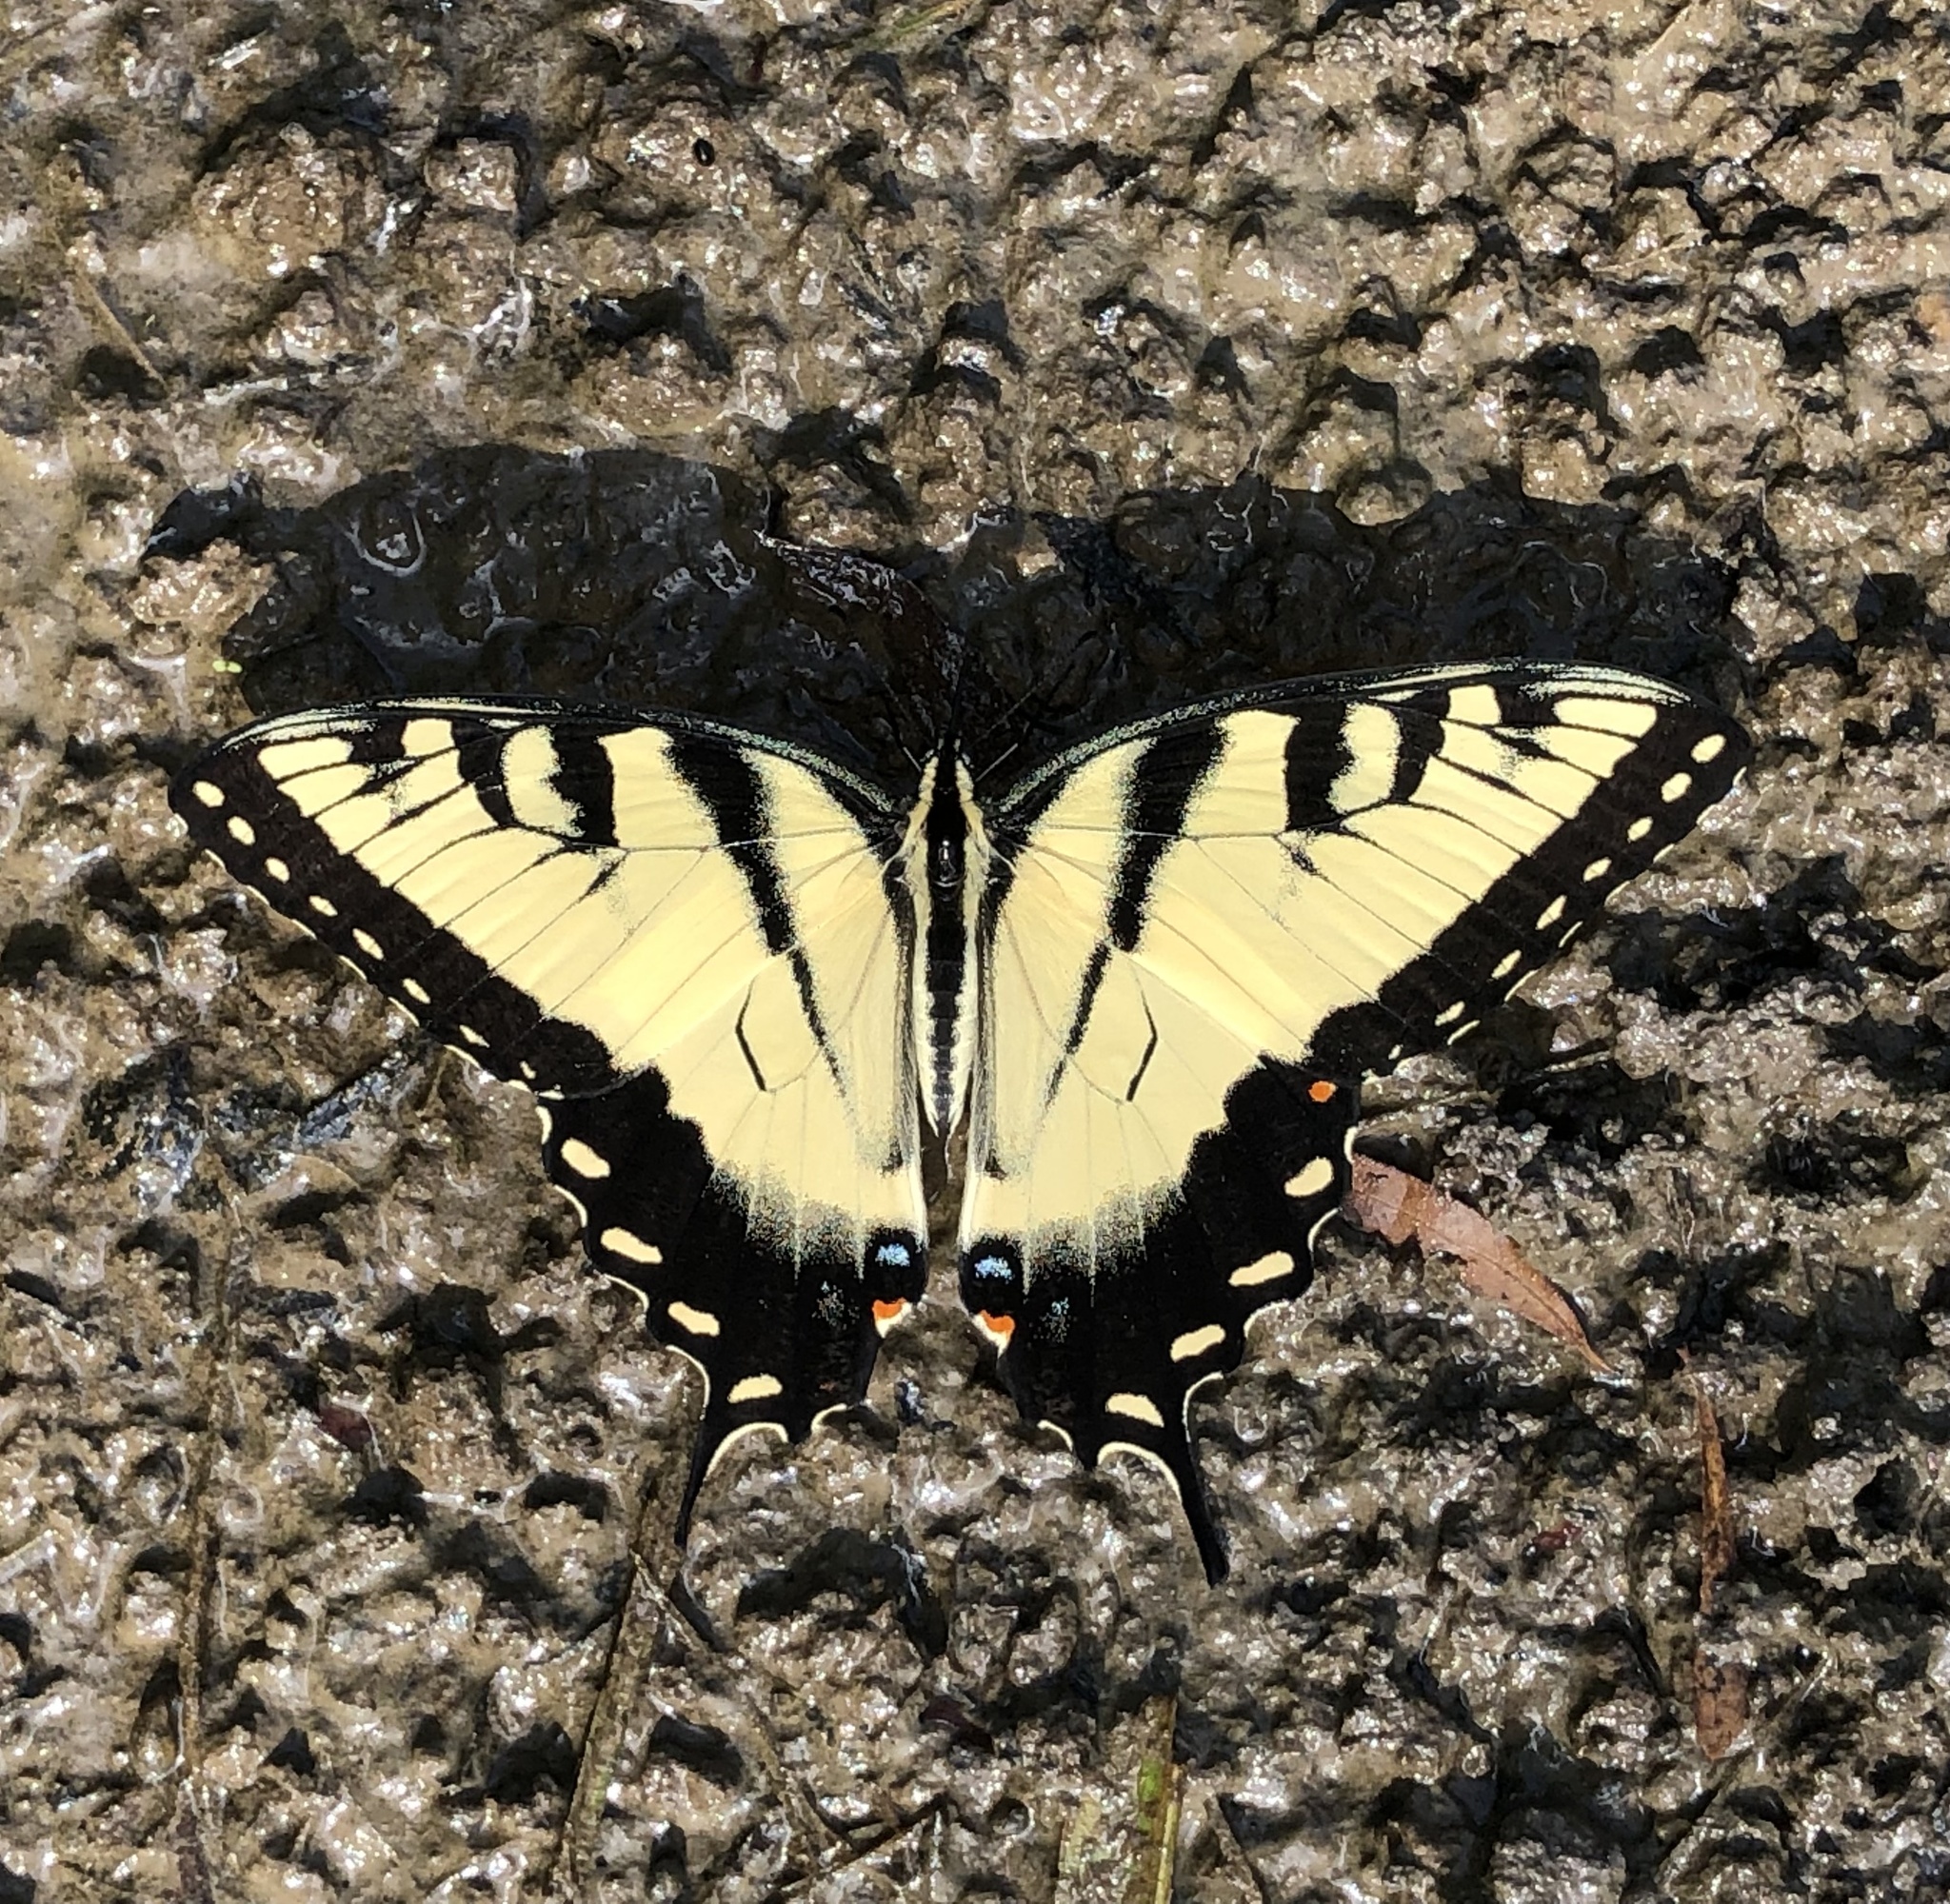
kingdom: Animalia
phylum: Arthropoda
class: Insecta
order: Lepidoptera
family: Papilionidae
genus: Papilio
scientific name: Papilio glaucus
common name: Tiger swallowtail
